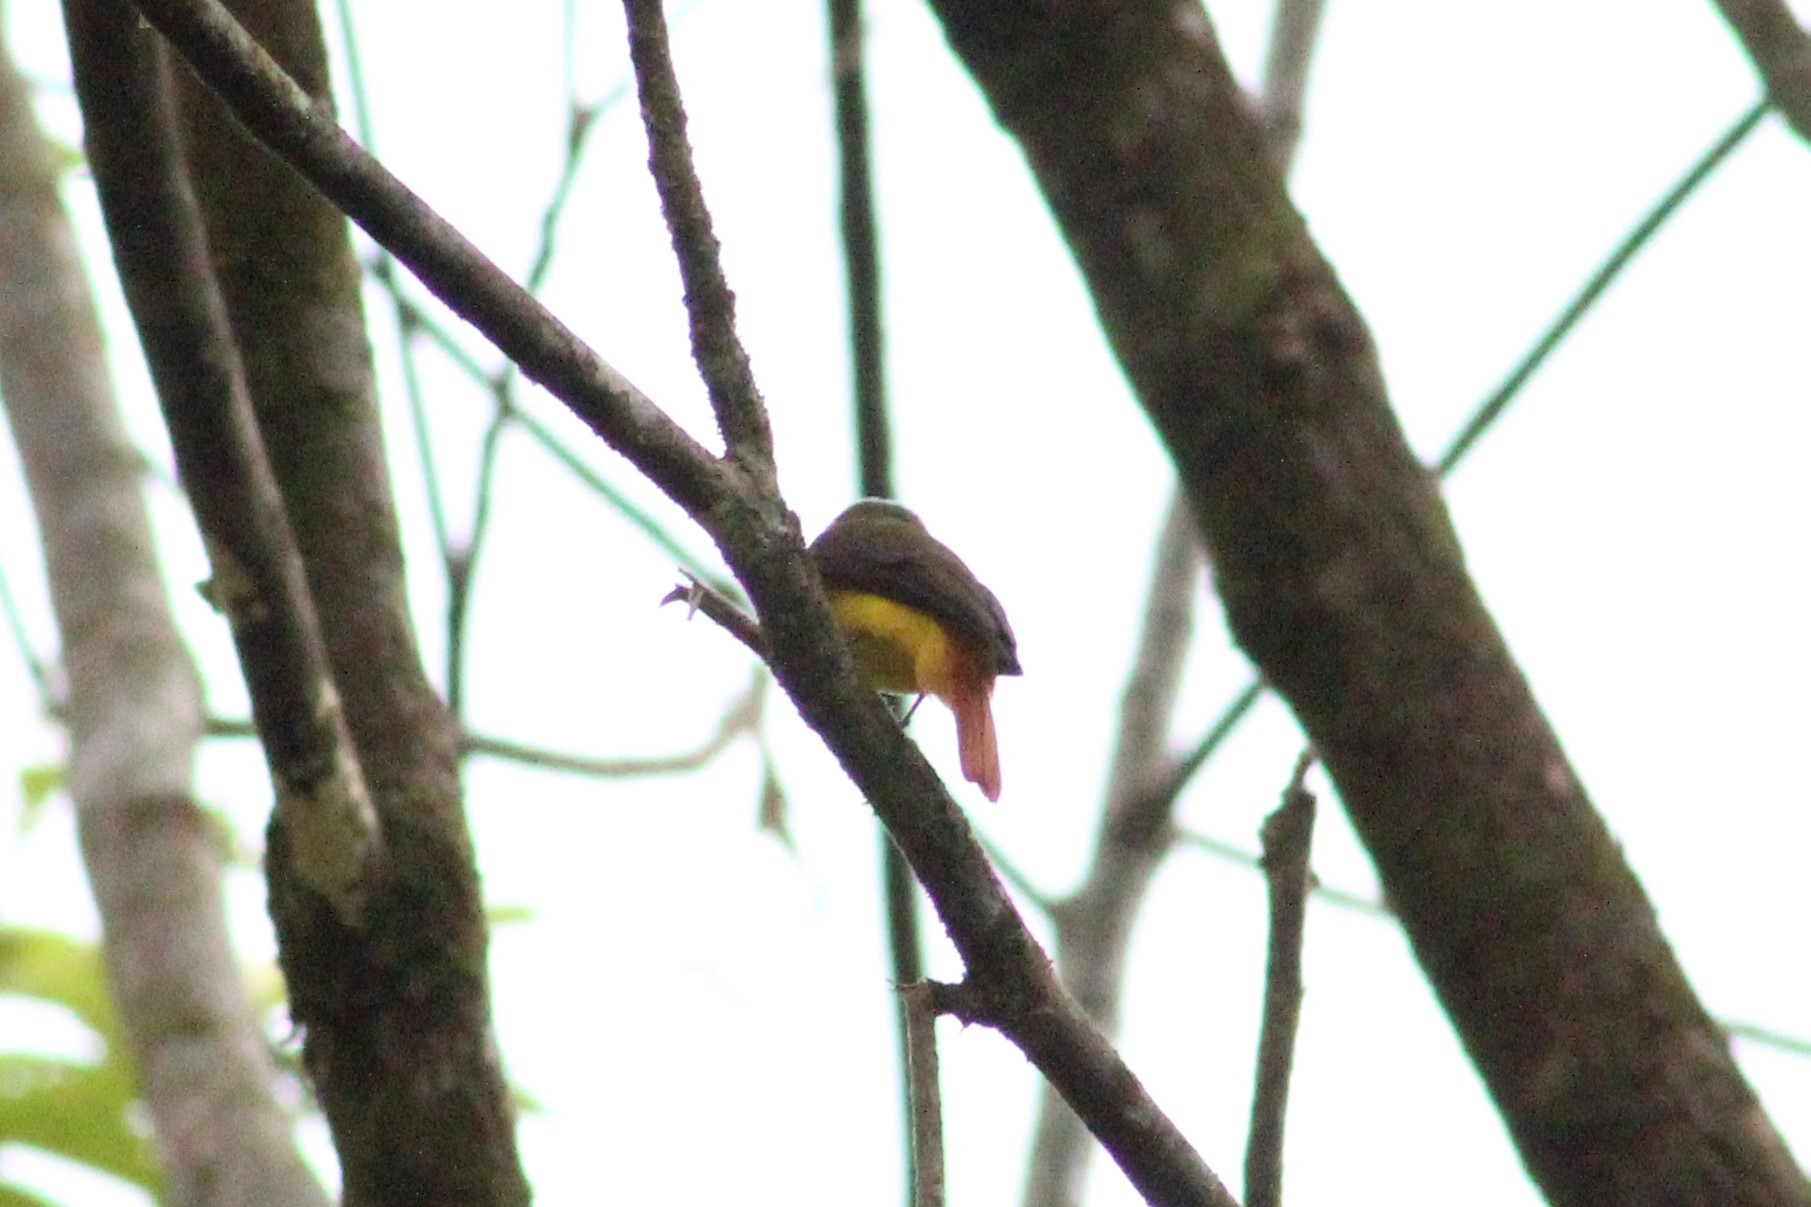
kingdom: Animalia
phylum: Chordata
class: Aves
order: Passeriformes
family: Tyrannidae
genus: Myiotriccus
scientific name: Myiotriccus ornatus
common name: Ornate flycatcher
